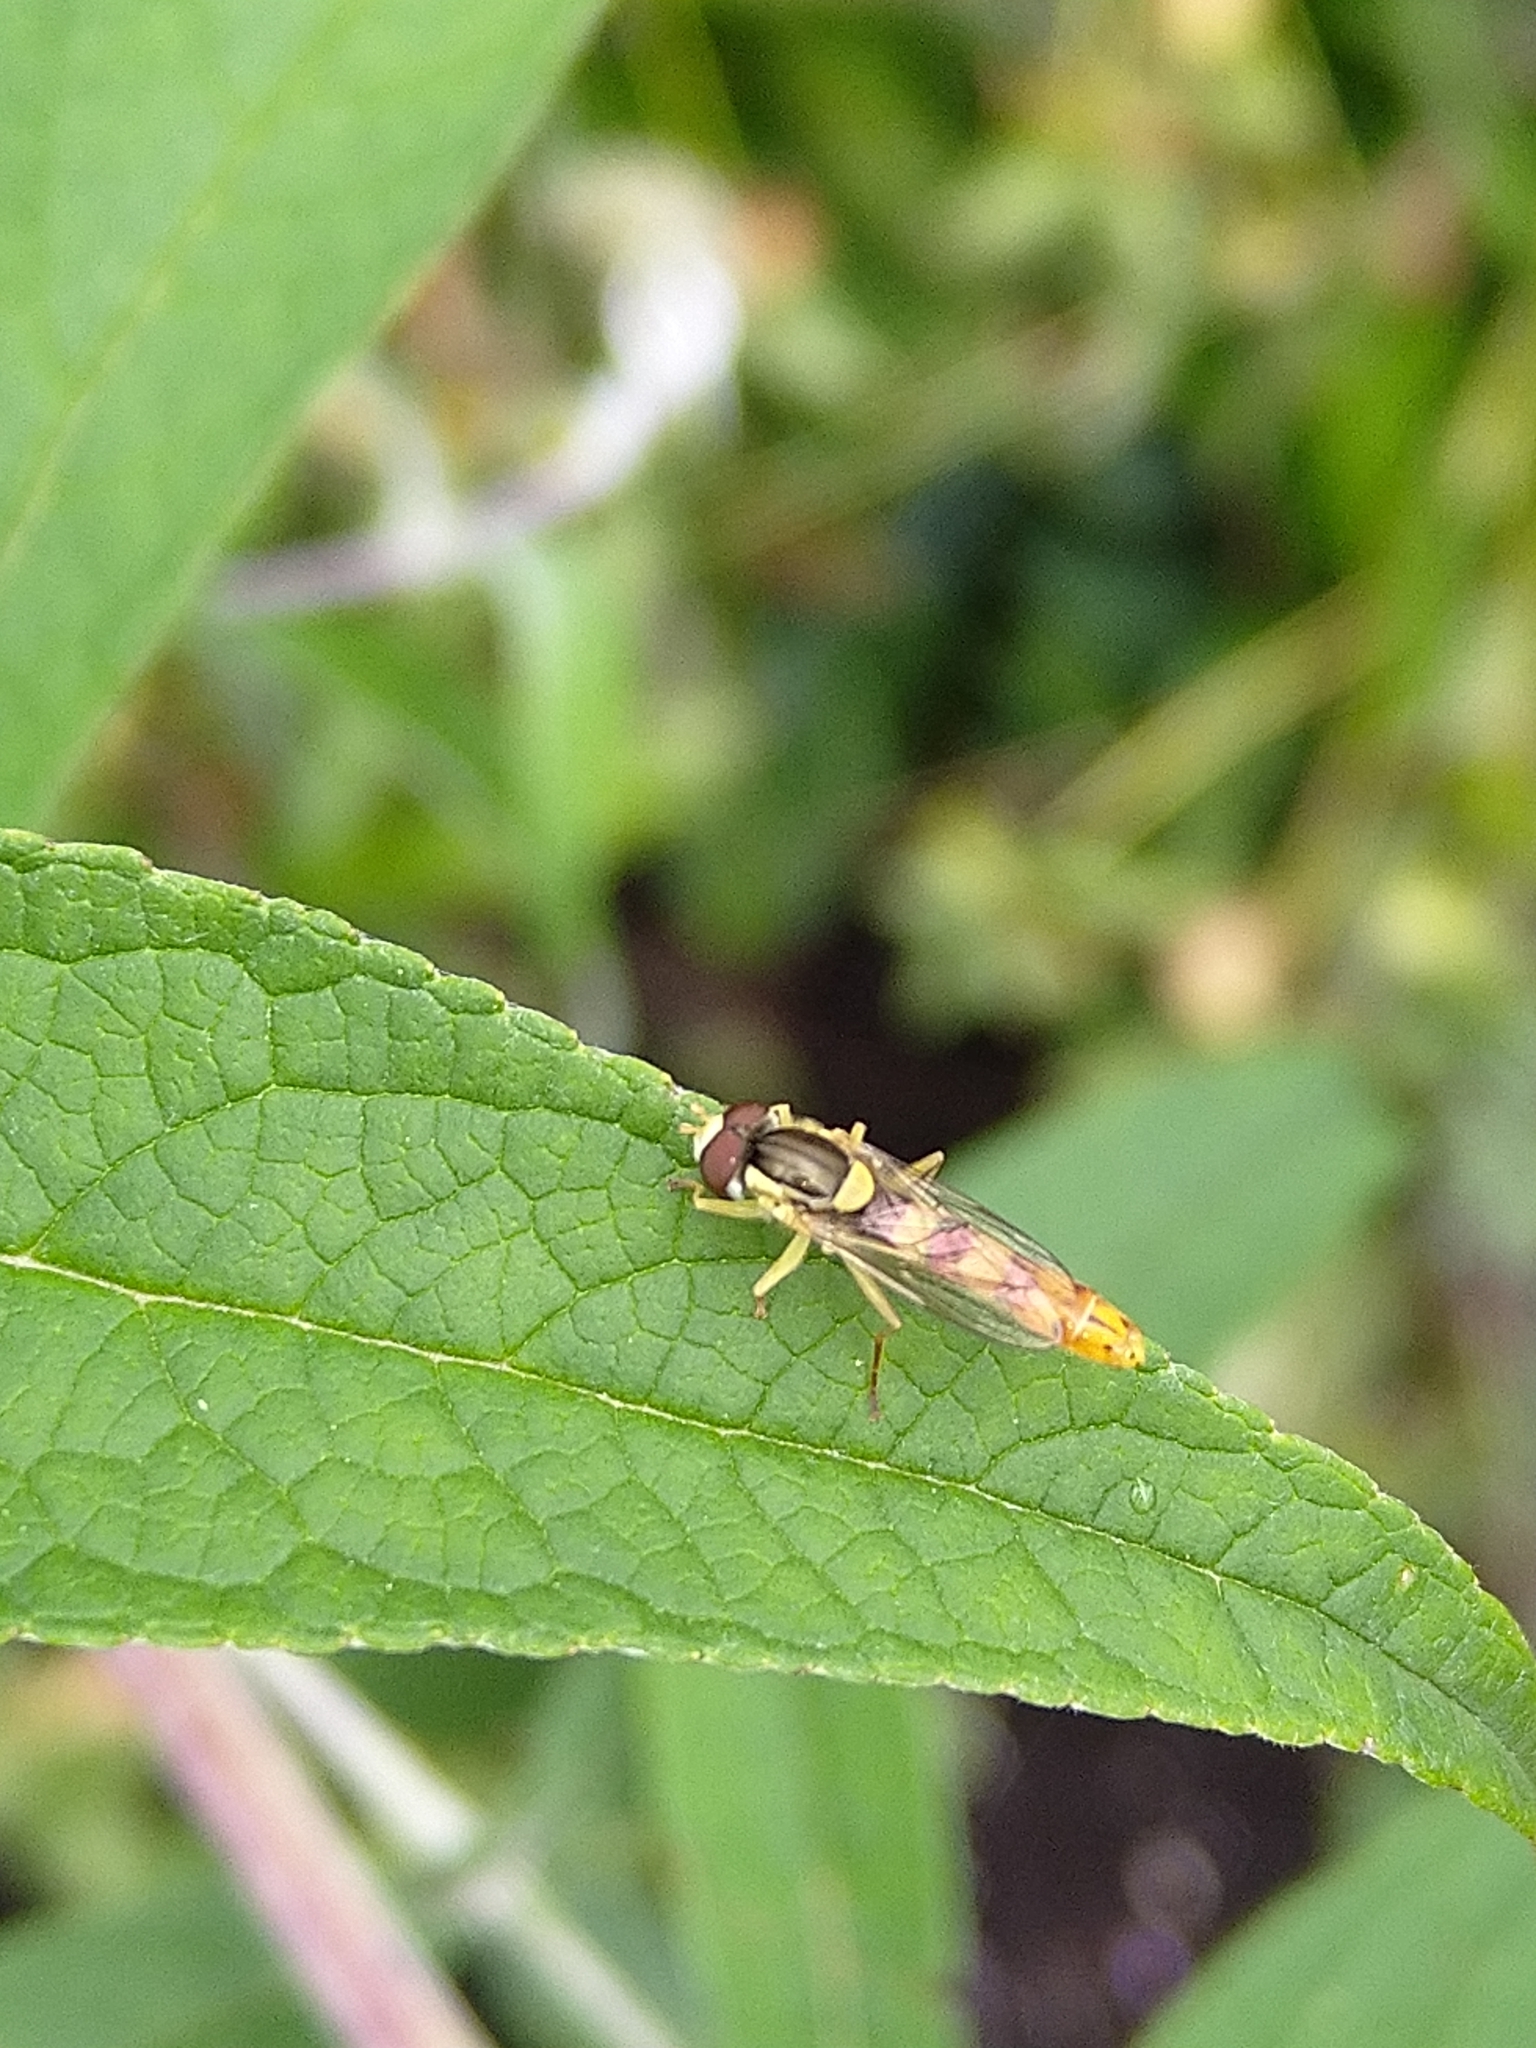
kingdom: Animalia
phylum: Arthropoda
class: Insecta
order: Diptera
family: Syrphidae
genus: Sphaerophoria
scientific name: Sphaerophoria scripta
